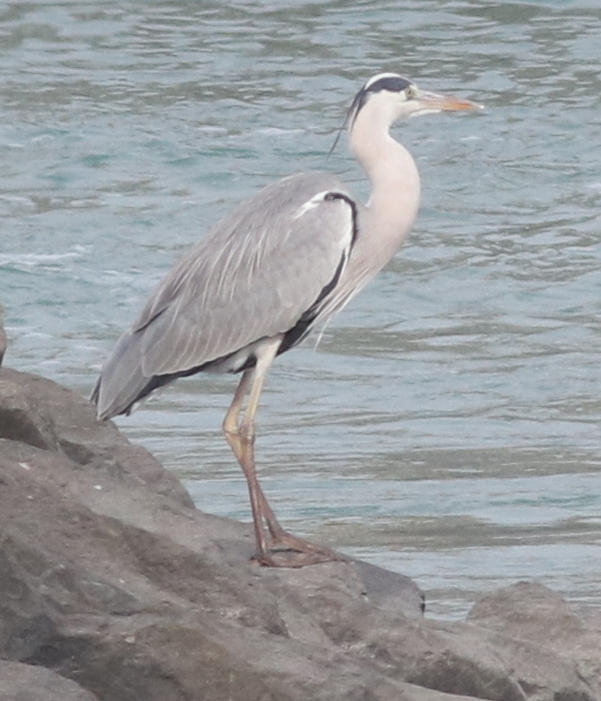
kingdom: Animalia
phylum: Chordata
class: Aves
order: Pelecaniformes
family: Ardeidae
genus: Ardea
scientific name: Ardea cinerea
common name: Grey heron
